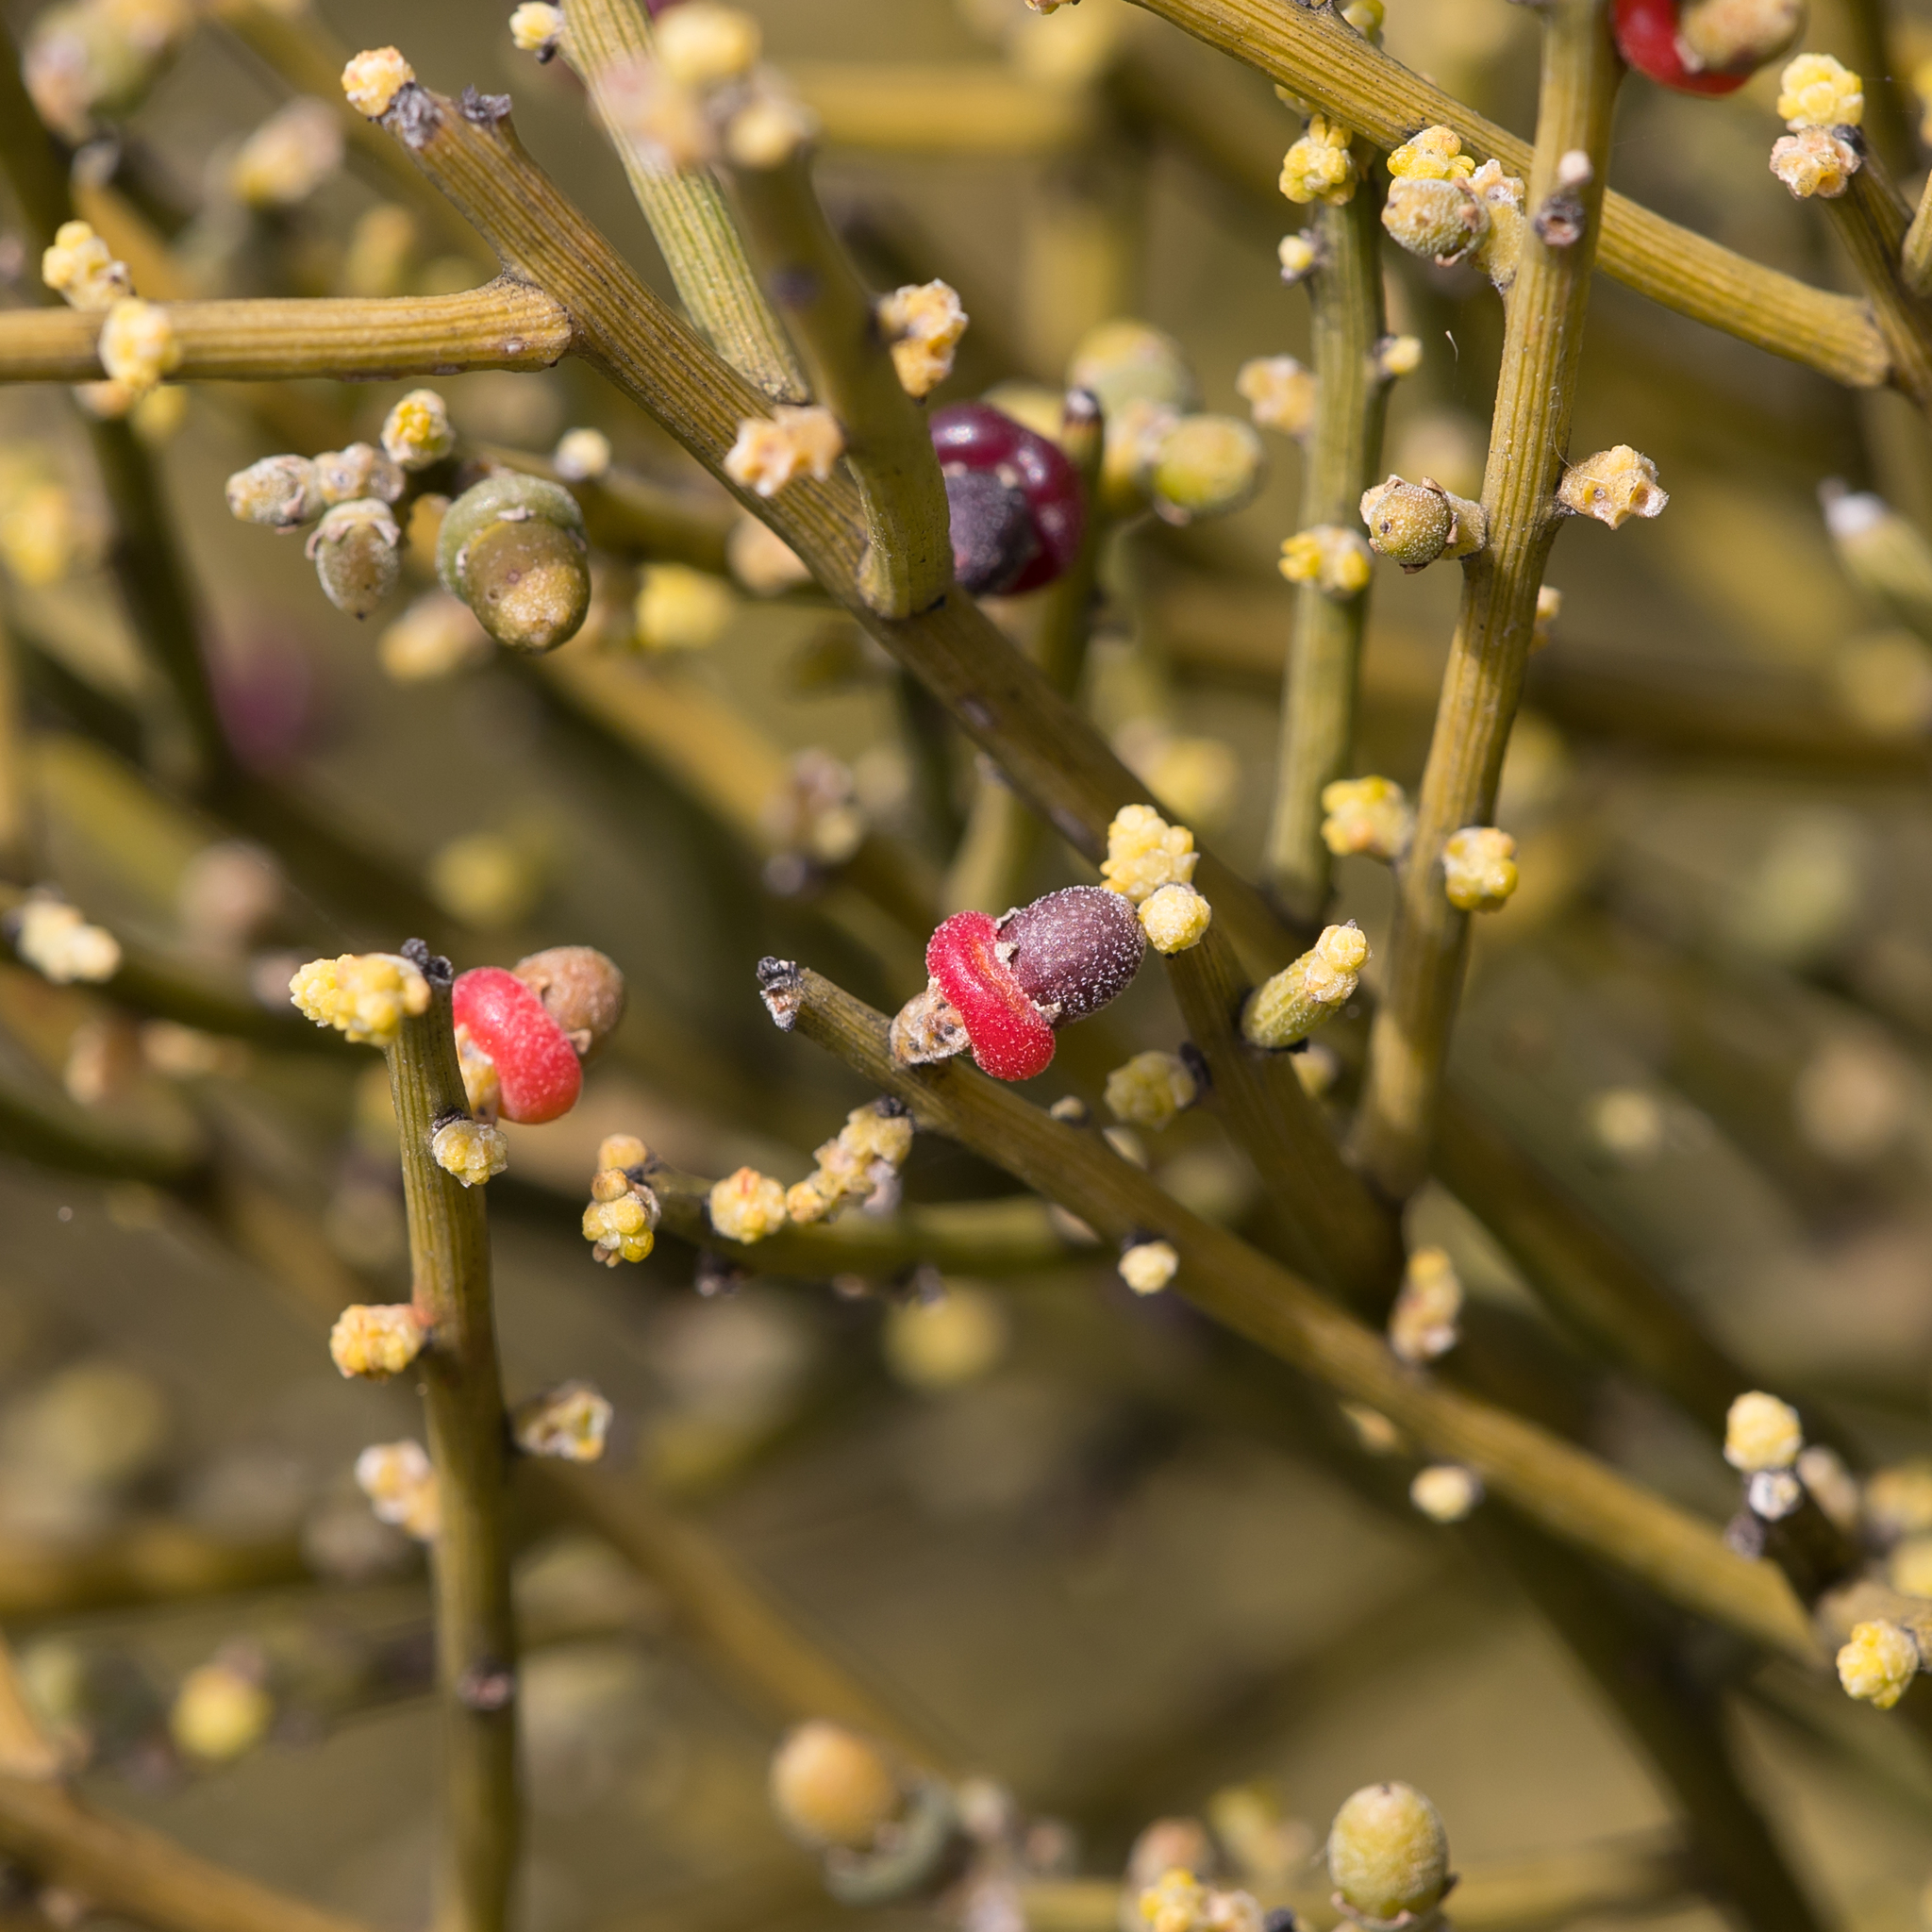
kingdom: Plantae
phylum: Tracheophyta
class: Magnoliopsida
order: Santalales
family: Santalaceae
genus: Exocarpos
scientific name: Exocarpos aphyllus
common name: Leafless ballart
